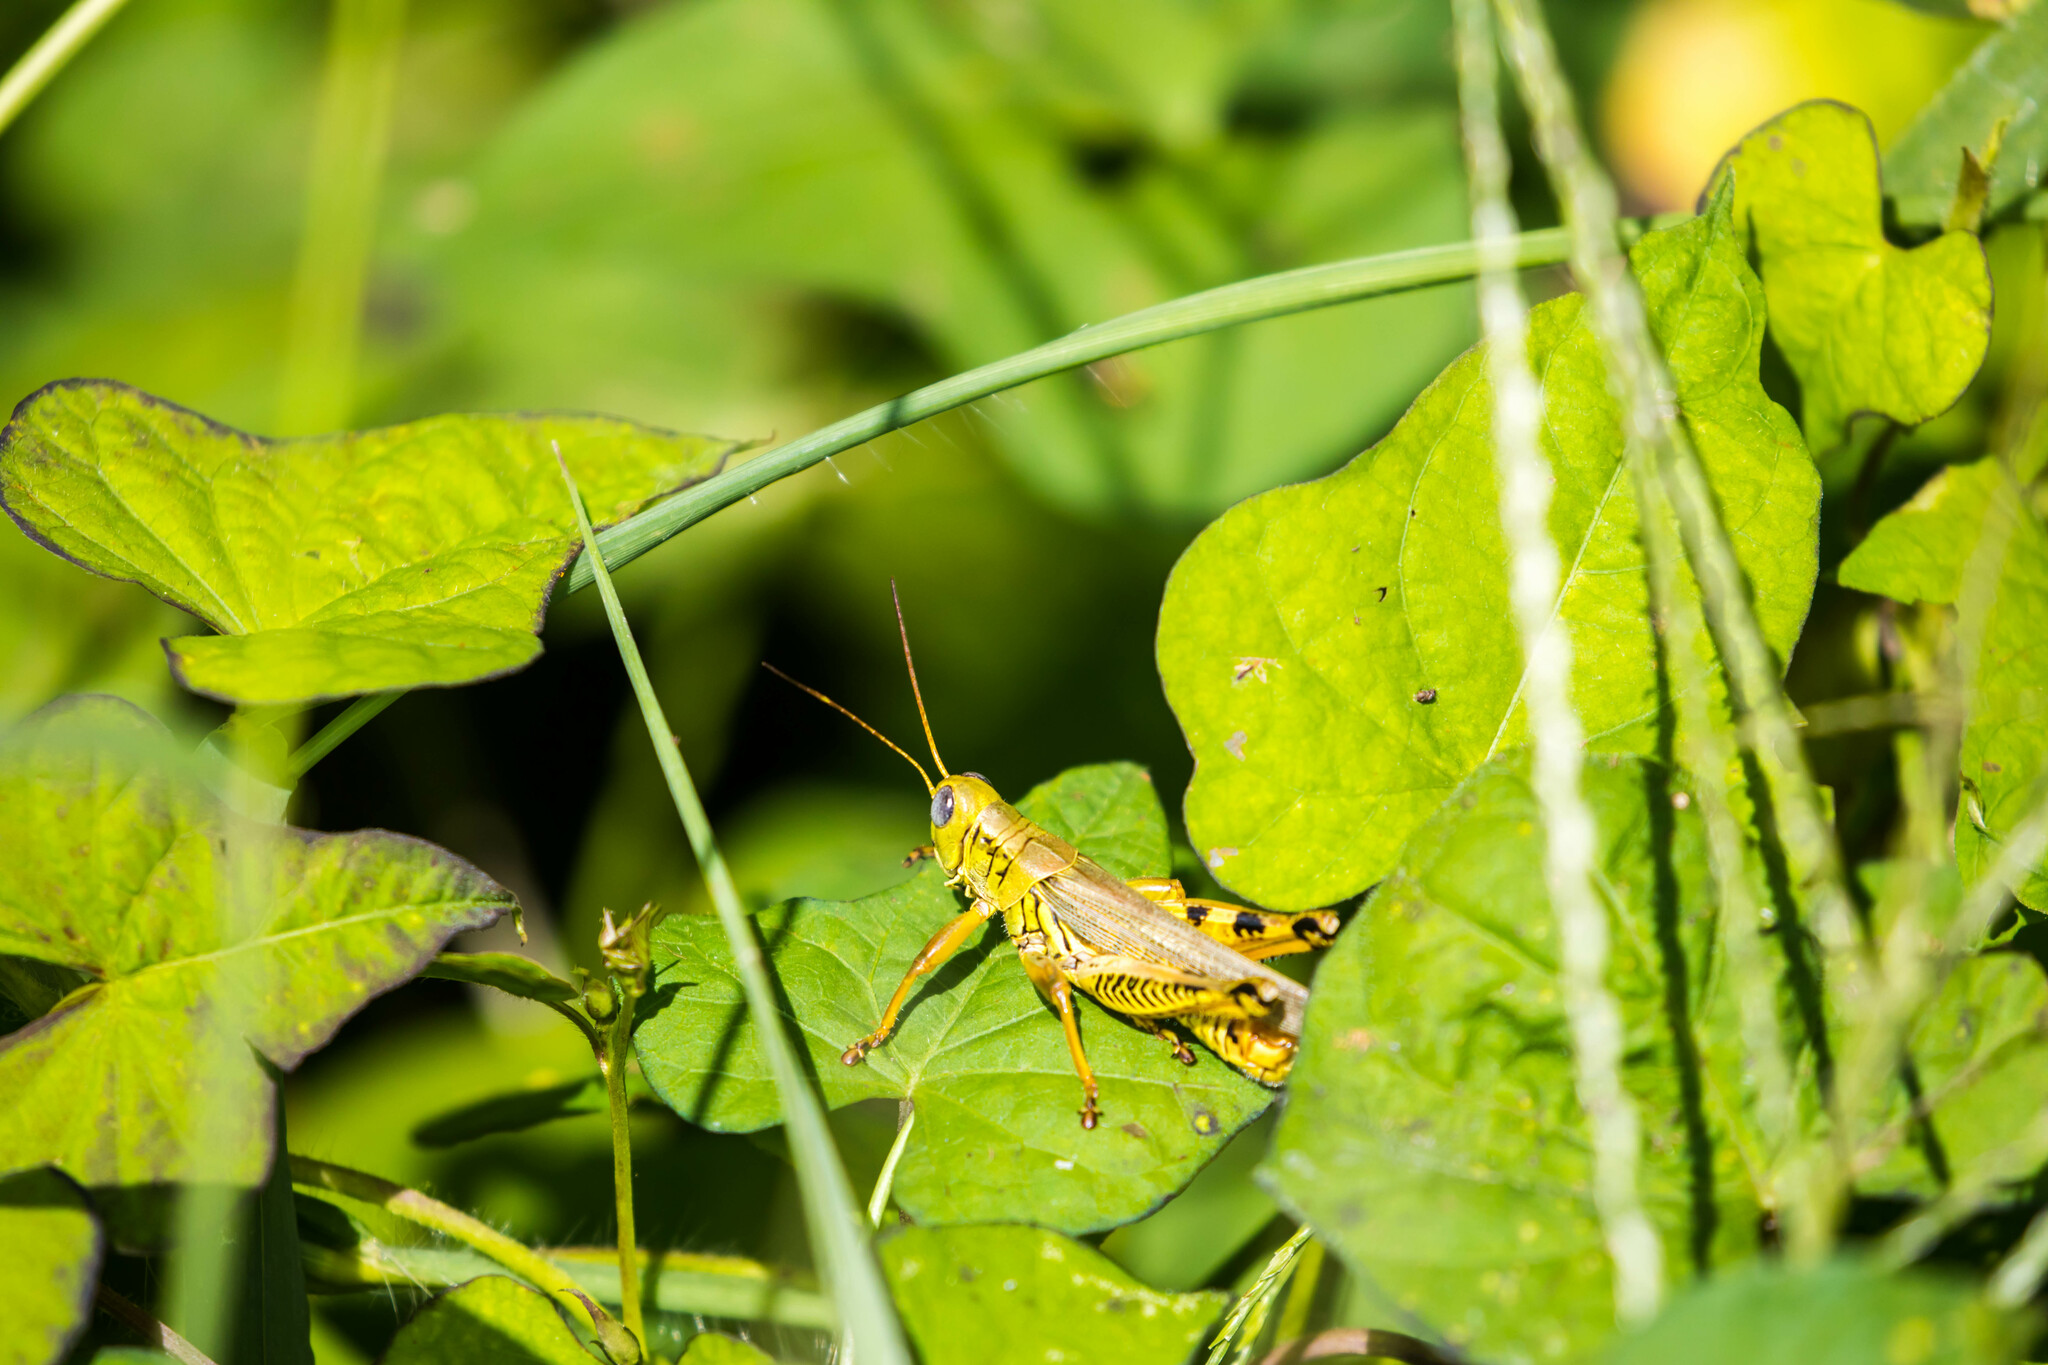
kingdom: Animalia
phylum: Arthropoda
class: Insecta
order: Orthoptera
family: Acrididae
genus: Melanoplus
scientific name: Melanoplus differentialis
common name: Differential grasshopper
